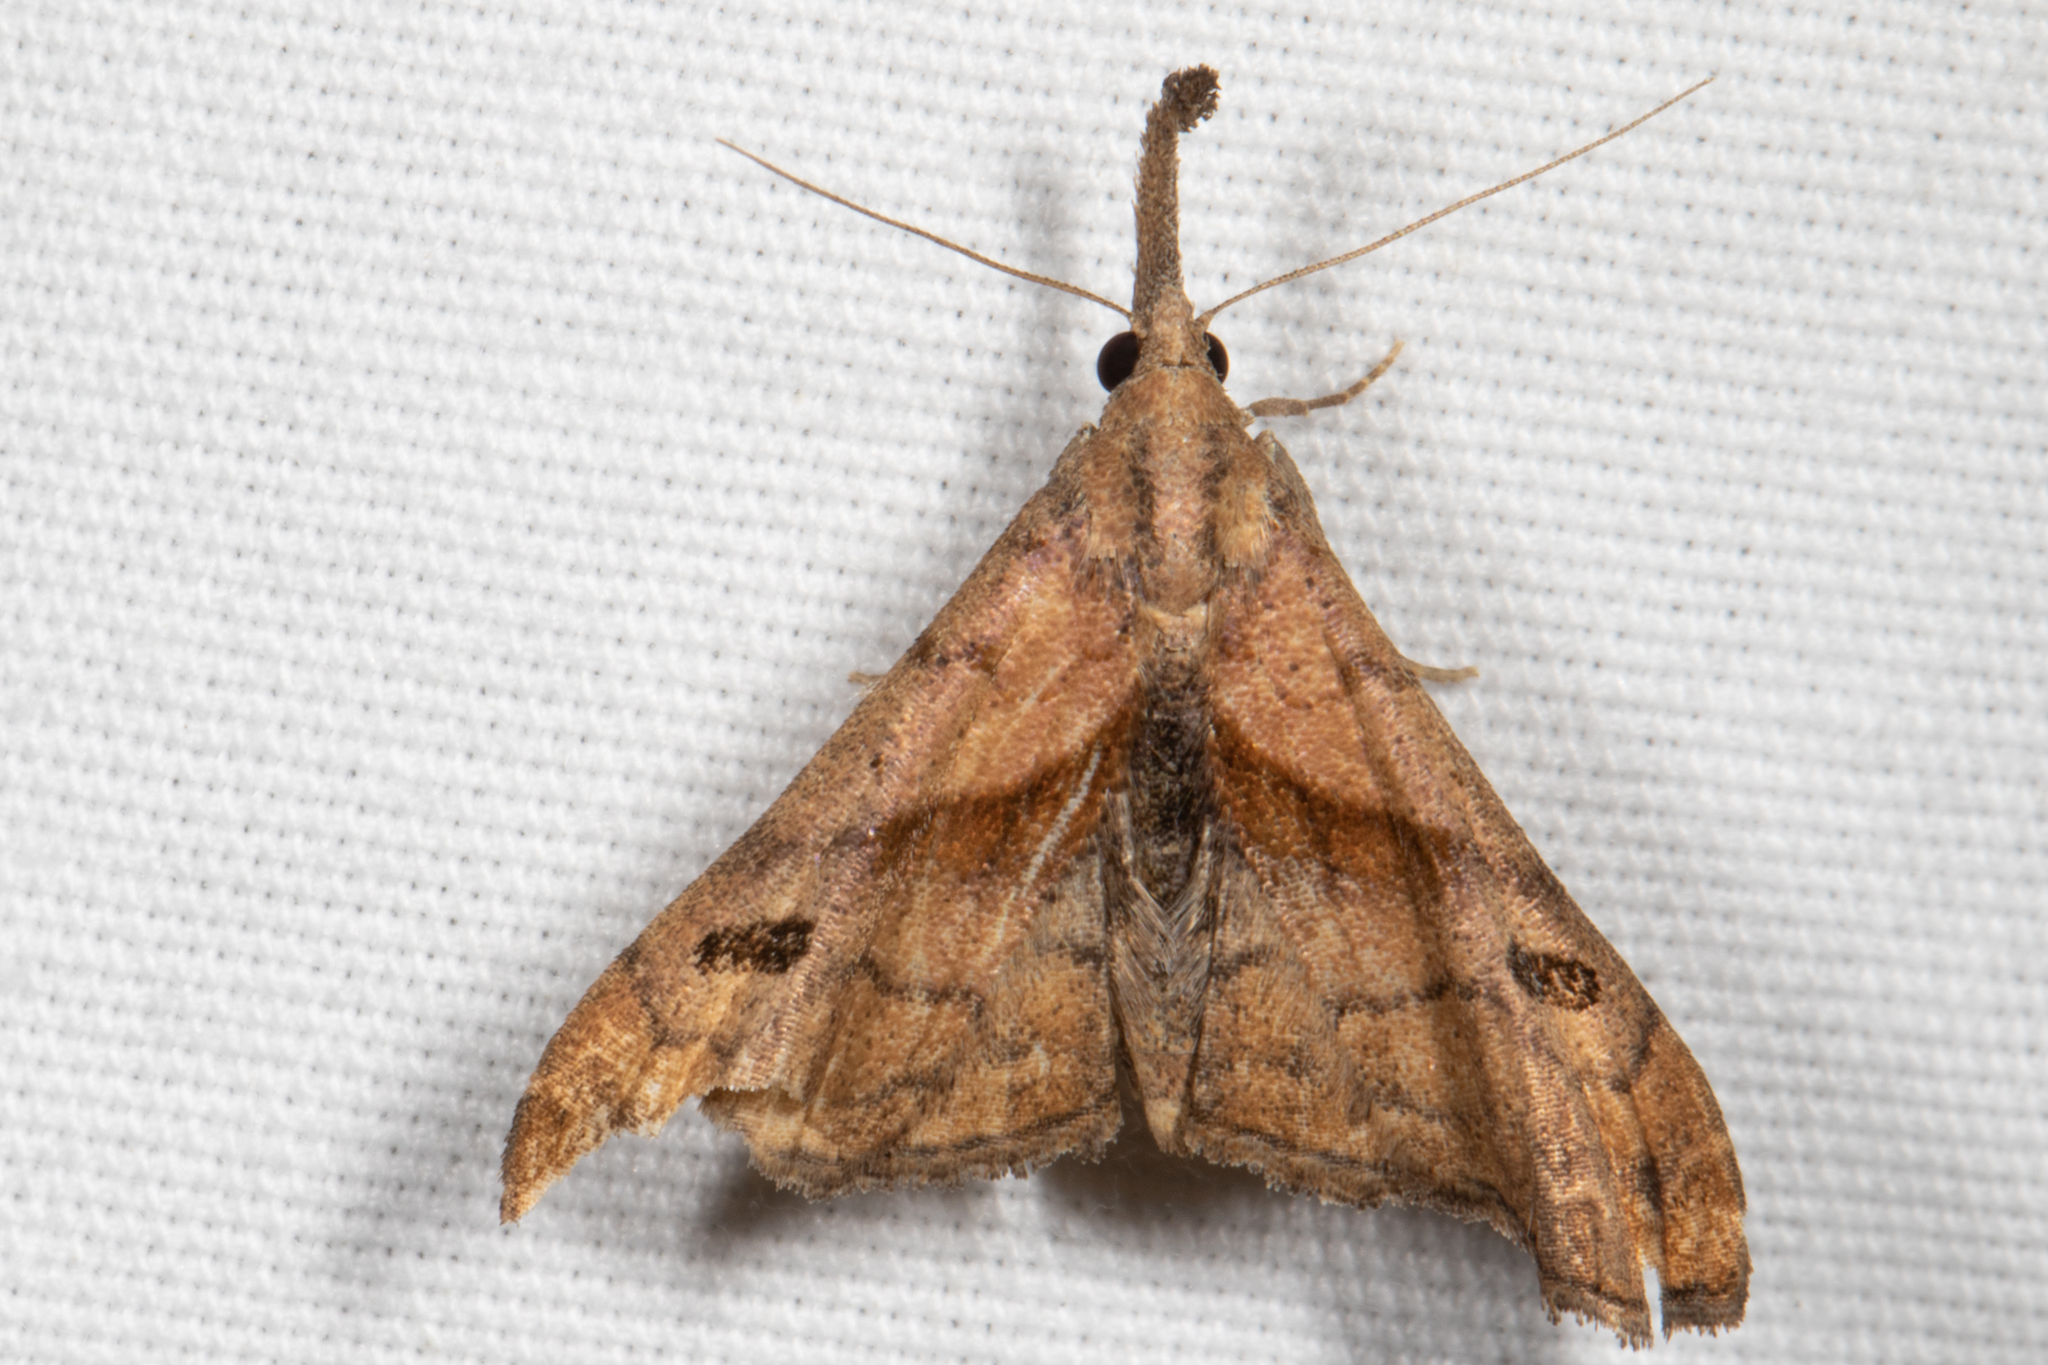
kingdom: Animalia
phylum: Arthropoda
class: Insecta
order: Lepidoptera
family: Erebidae
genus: Palthis
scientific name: Palthis angulalis
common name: Dark-spotted palthis moth
